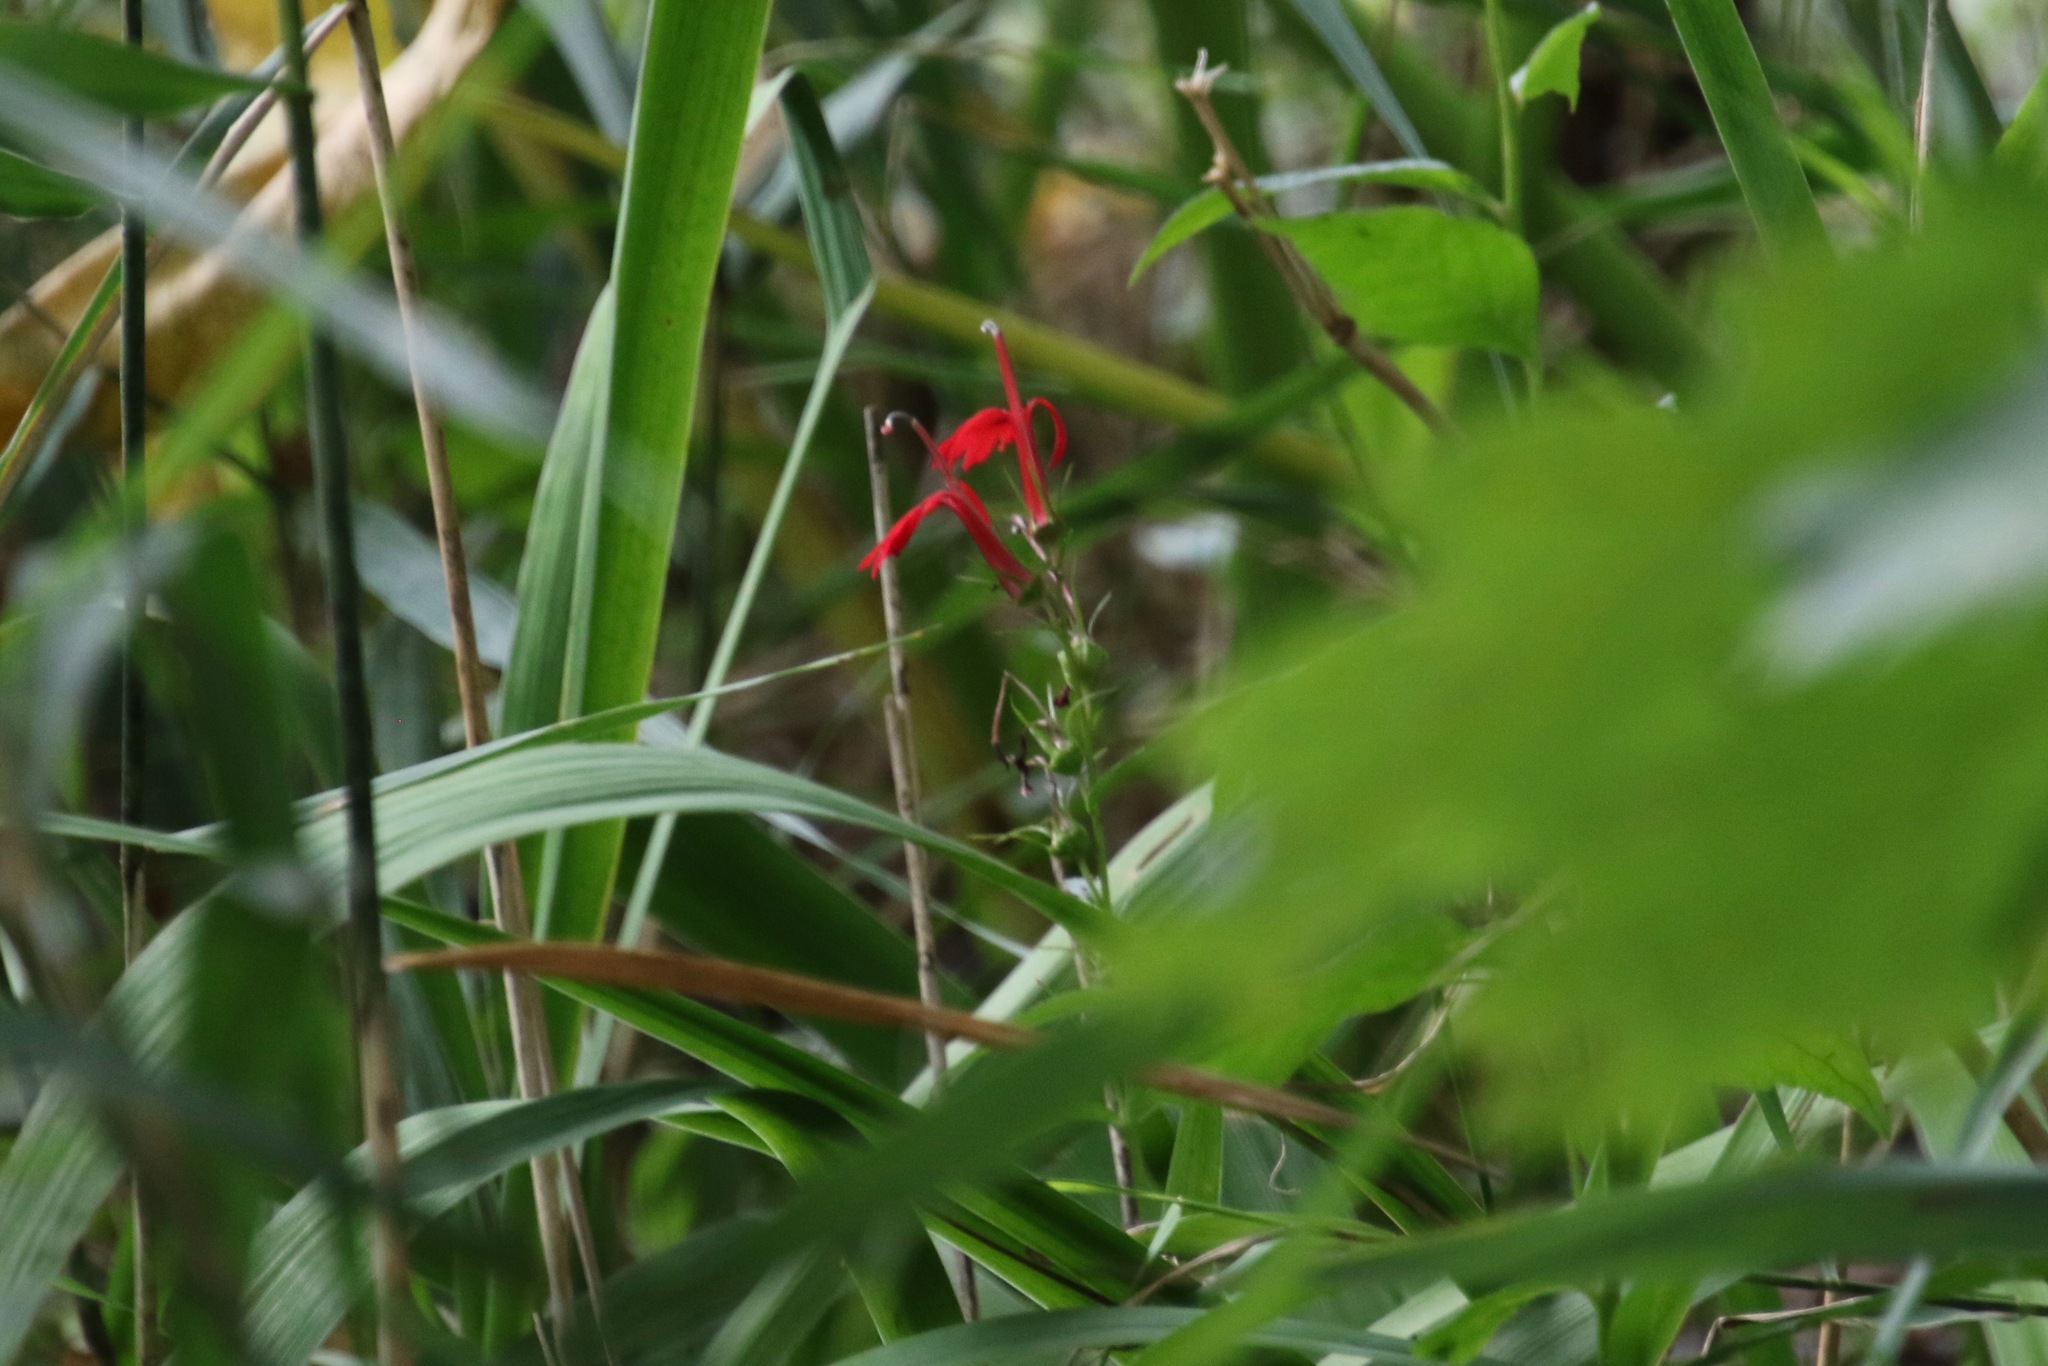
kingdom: Plantae
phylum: Tracheophyta
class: Magnoliopsida
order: Asterales
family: Campanulaceae
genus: Lobelia
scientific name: Lobelia cardinalis
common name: Cardinal flower
